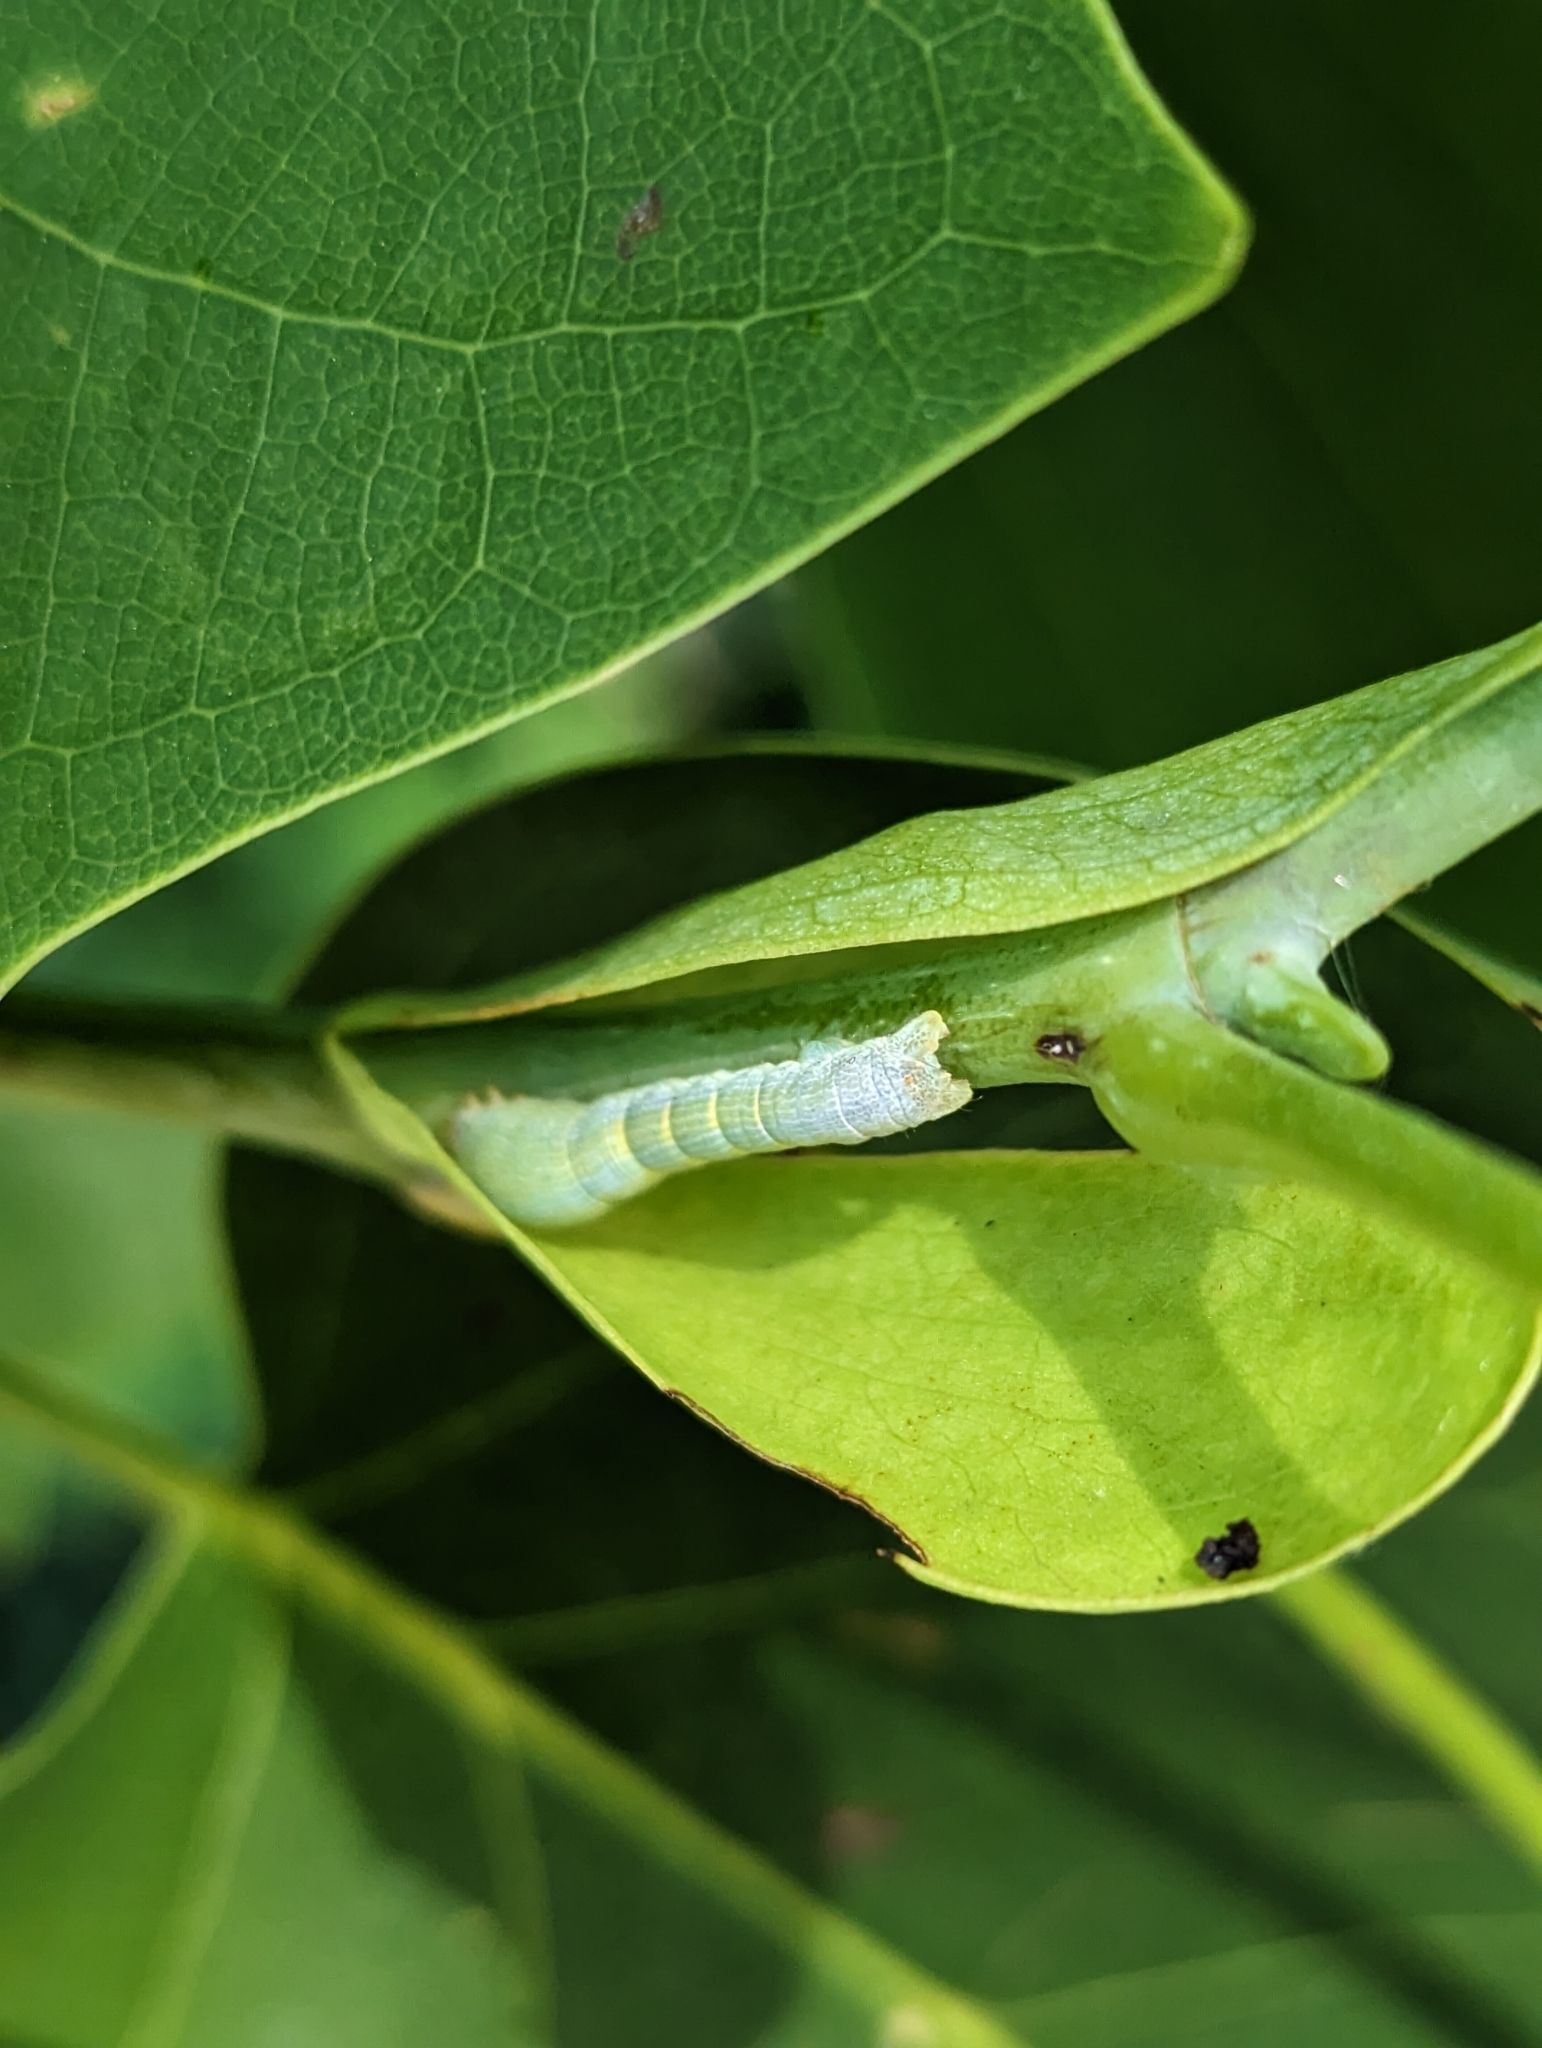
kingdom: Animalia
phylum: Arthropoda
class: Insecta
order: Lepidoptera
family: Geometridae
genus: Epimecis
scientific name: Epimecis hortaria
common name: Tulip-tree beauty
